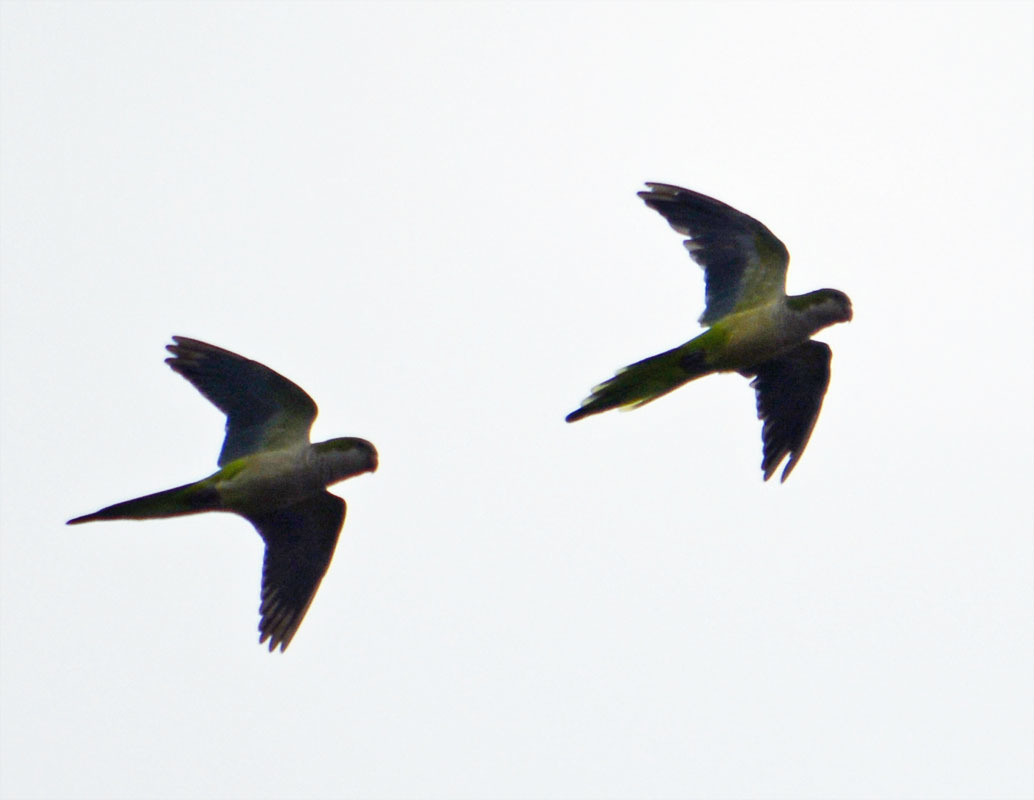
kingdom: Animalia
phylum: Chordata
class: Aves
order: Psittaciformes
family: Psittacidae
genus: Myiopsitta
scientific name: Myiopsitta monachus
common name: Monk parakeet
